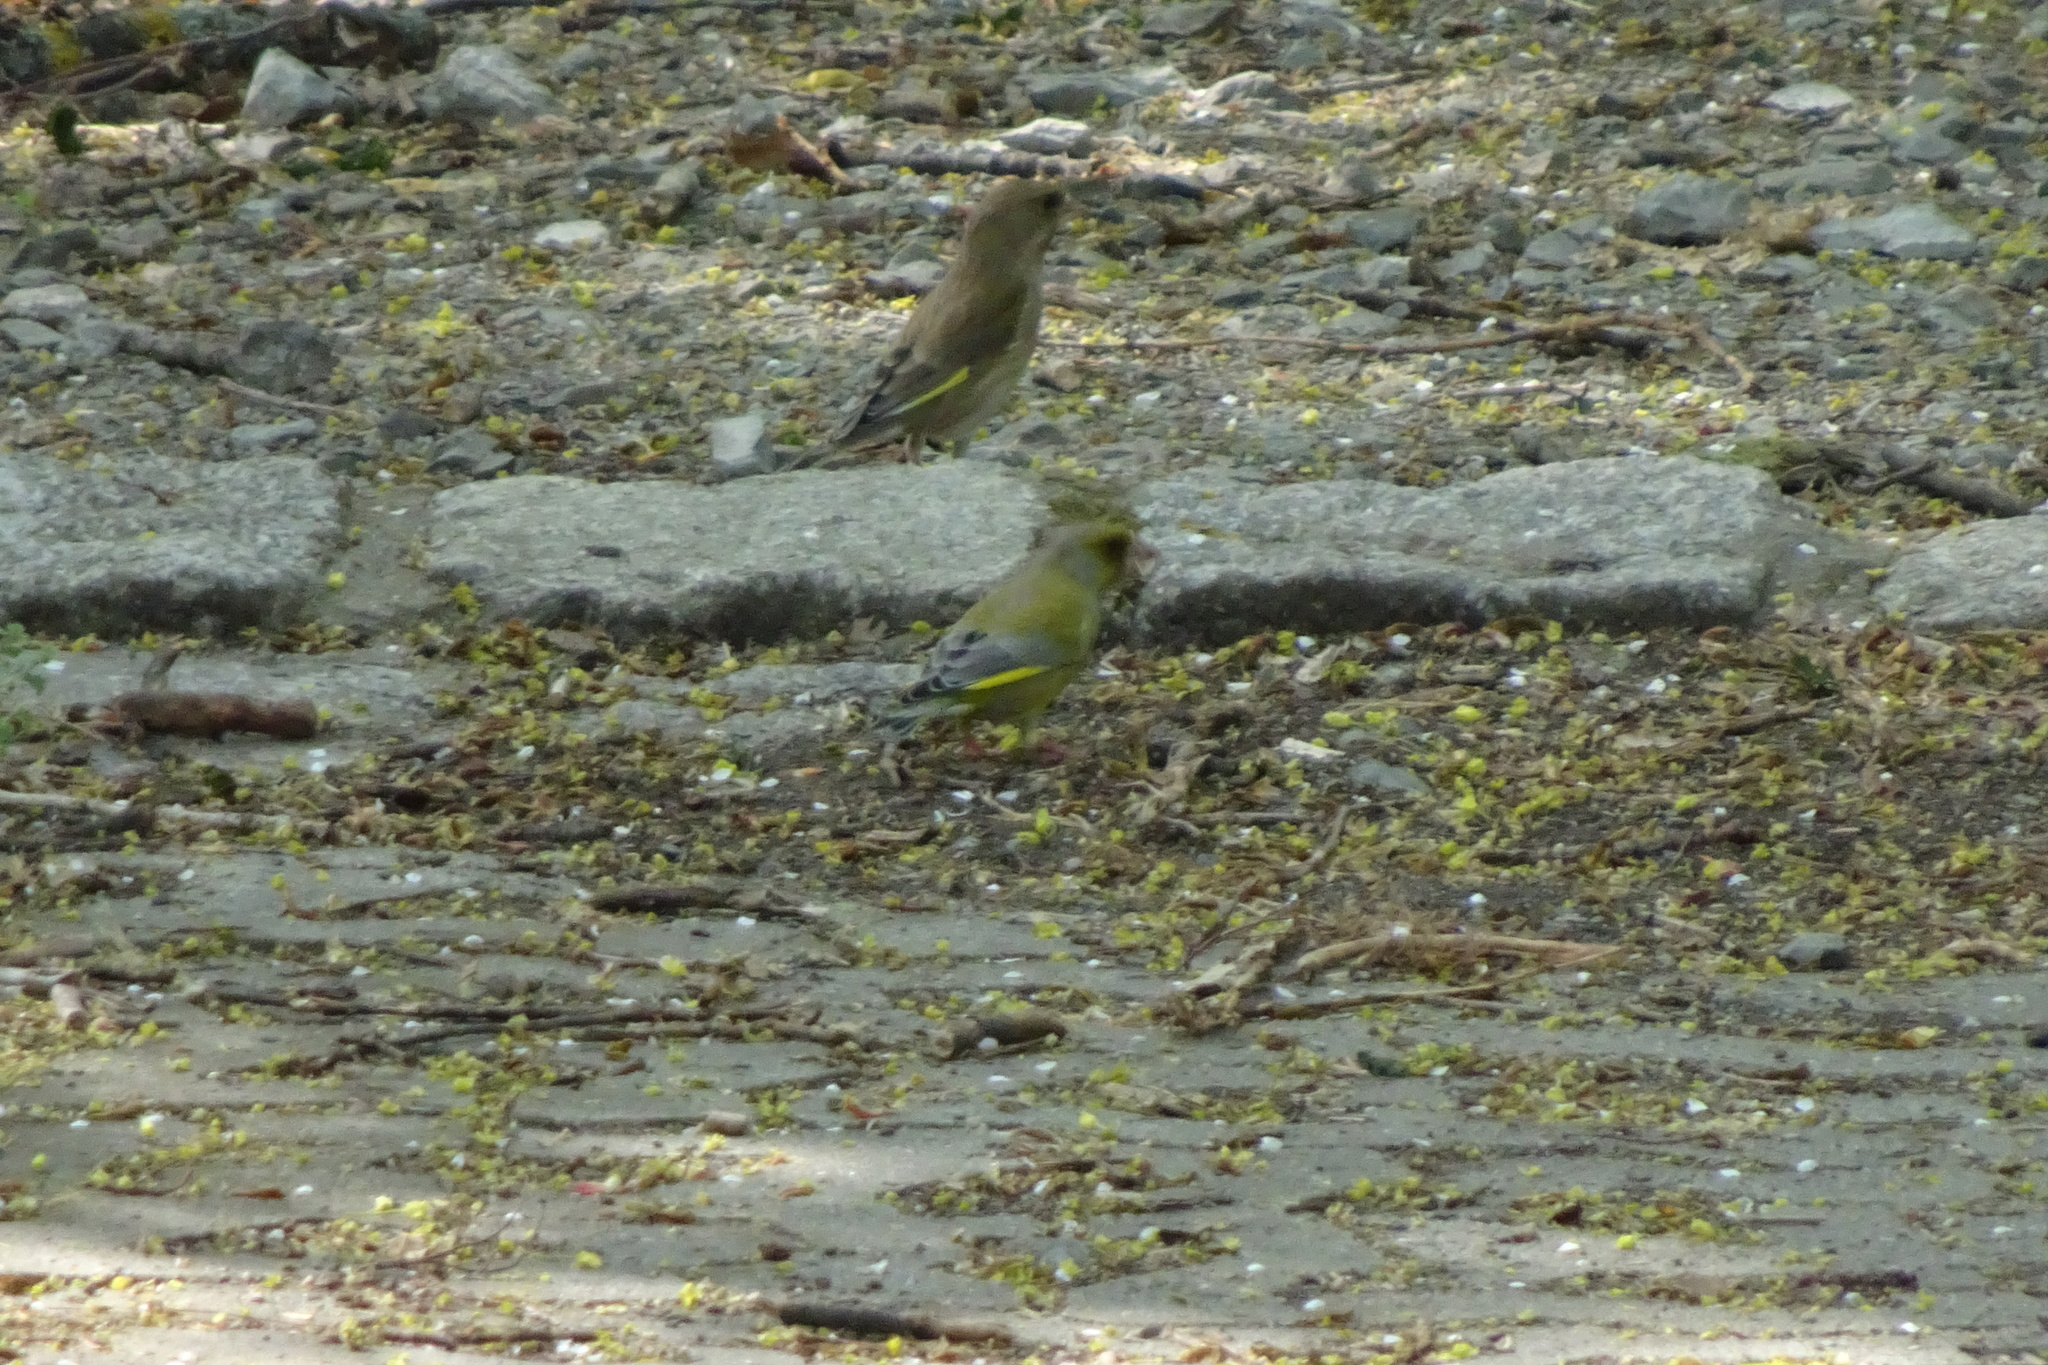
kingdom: Plantae
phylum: Tracheophyta
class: Liliopsida
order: Poales
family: Poaceae
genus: Chloris
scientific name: Chloris chloris
